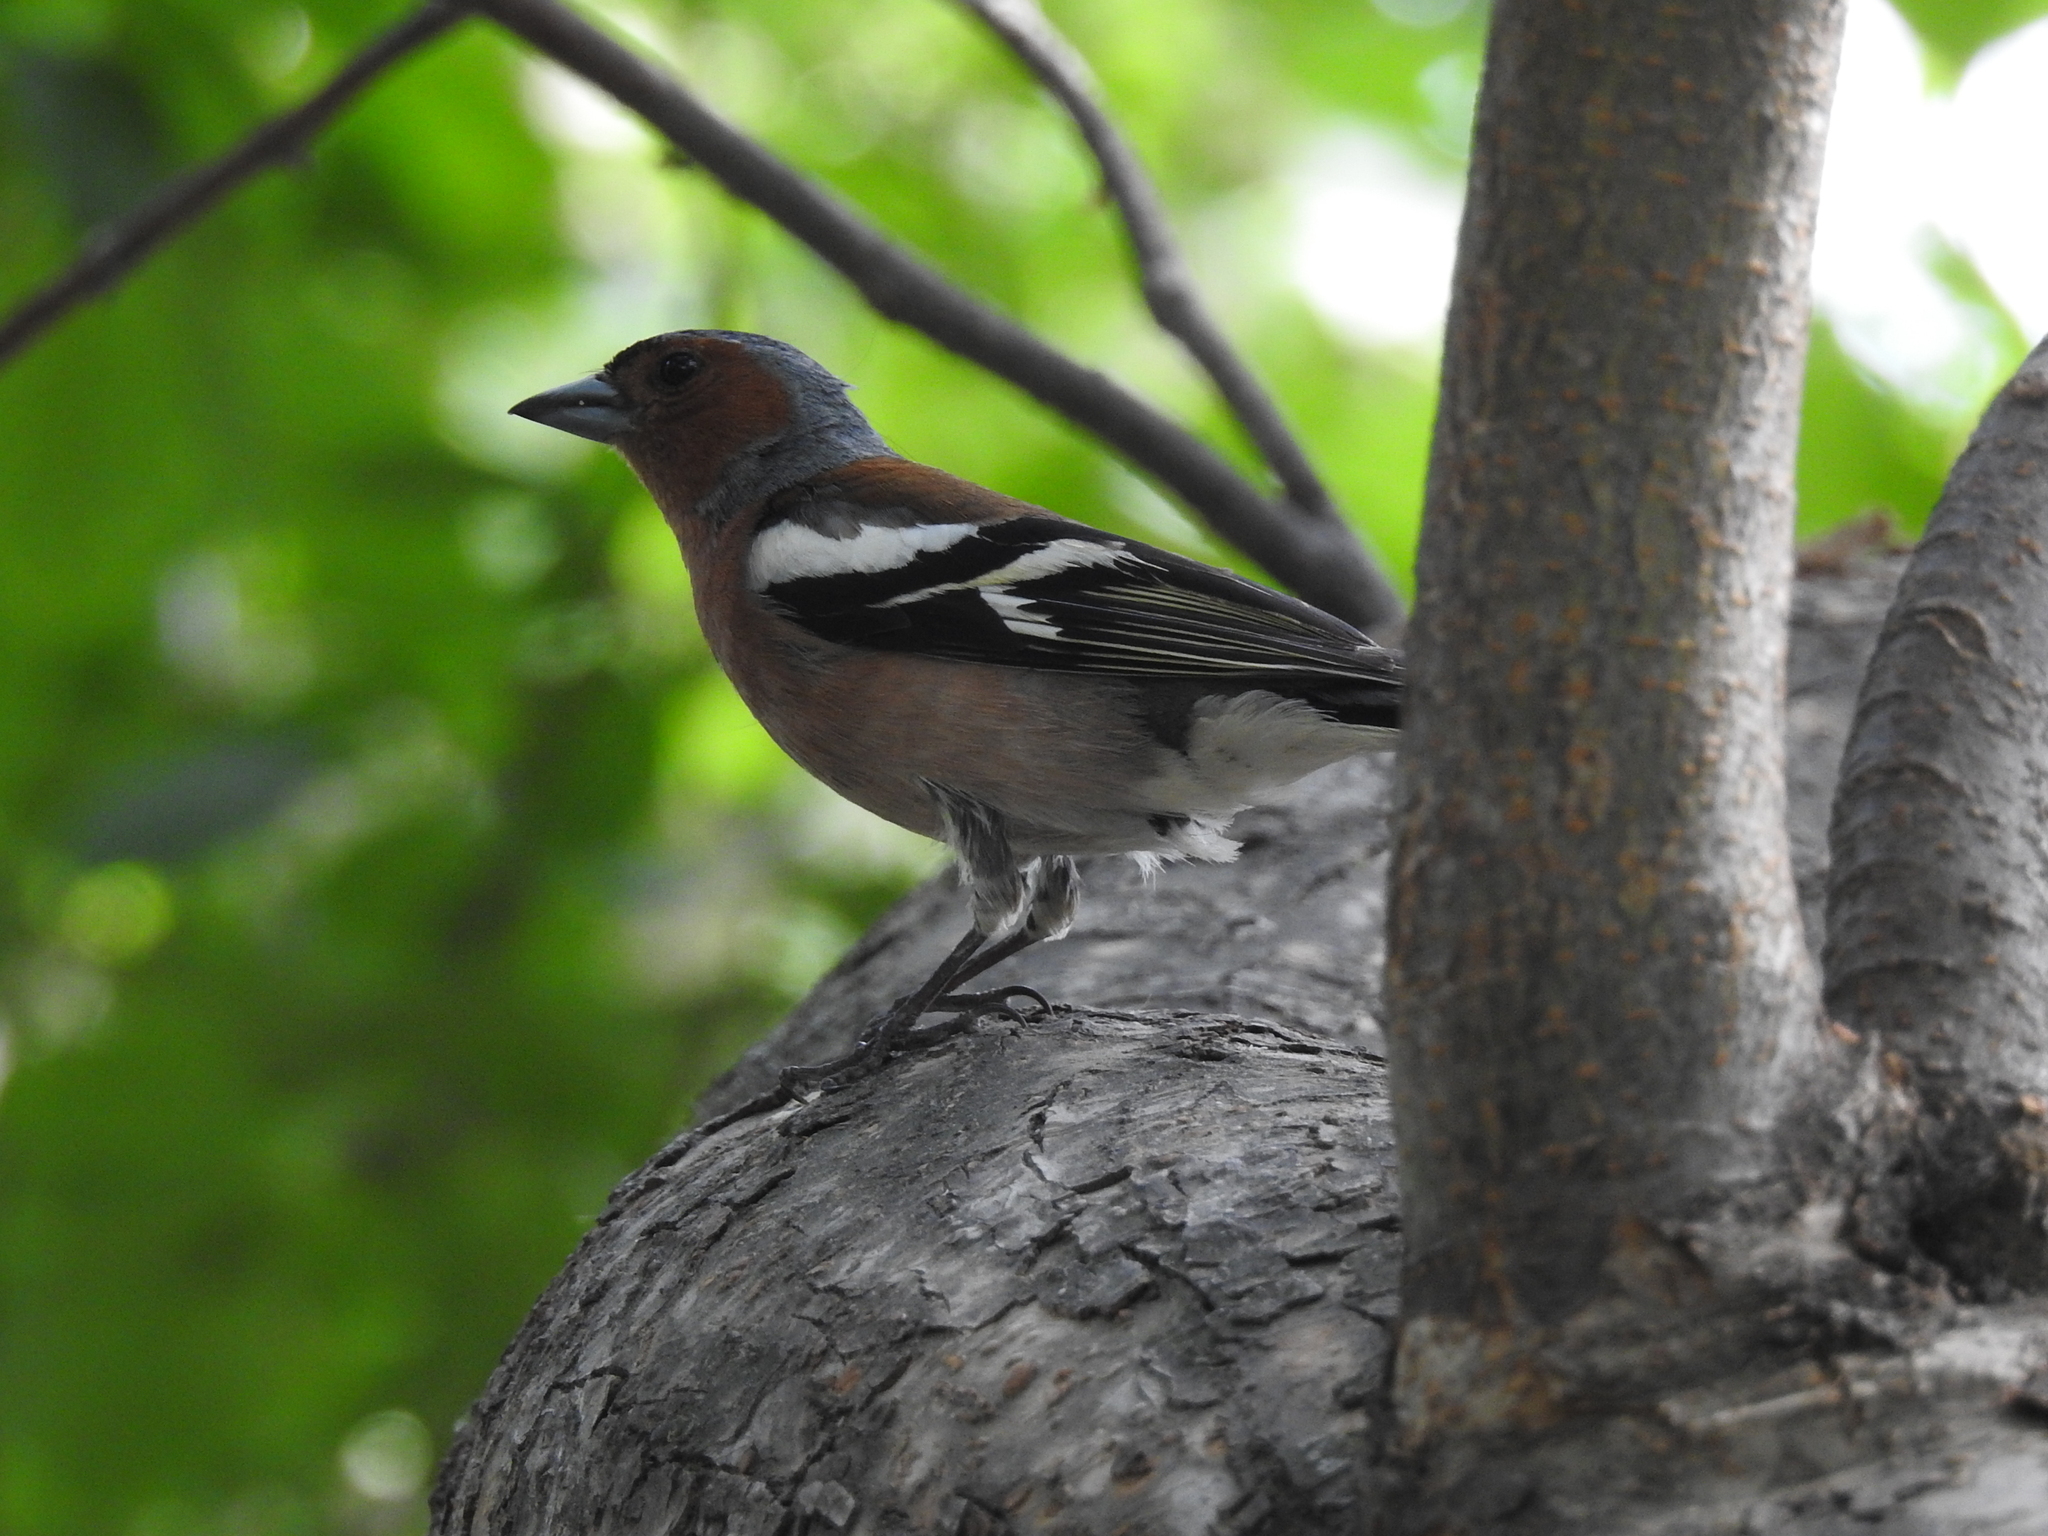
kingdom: Animalia
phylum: Chordata
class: Aves
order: Passeriformes
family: Fringillidae
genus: Fringilla
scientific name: Fringilla coelebs
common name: Common chaffinch
